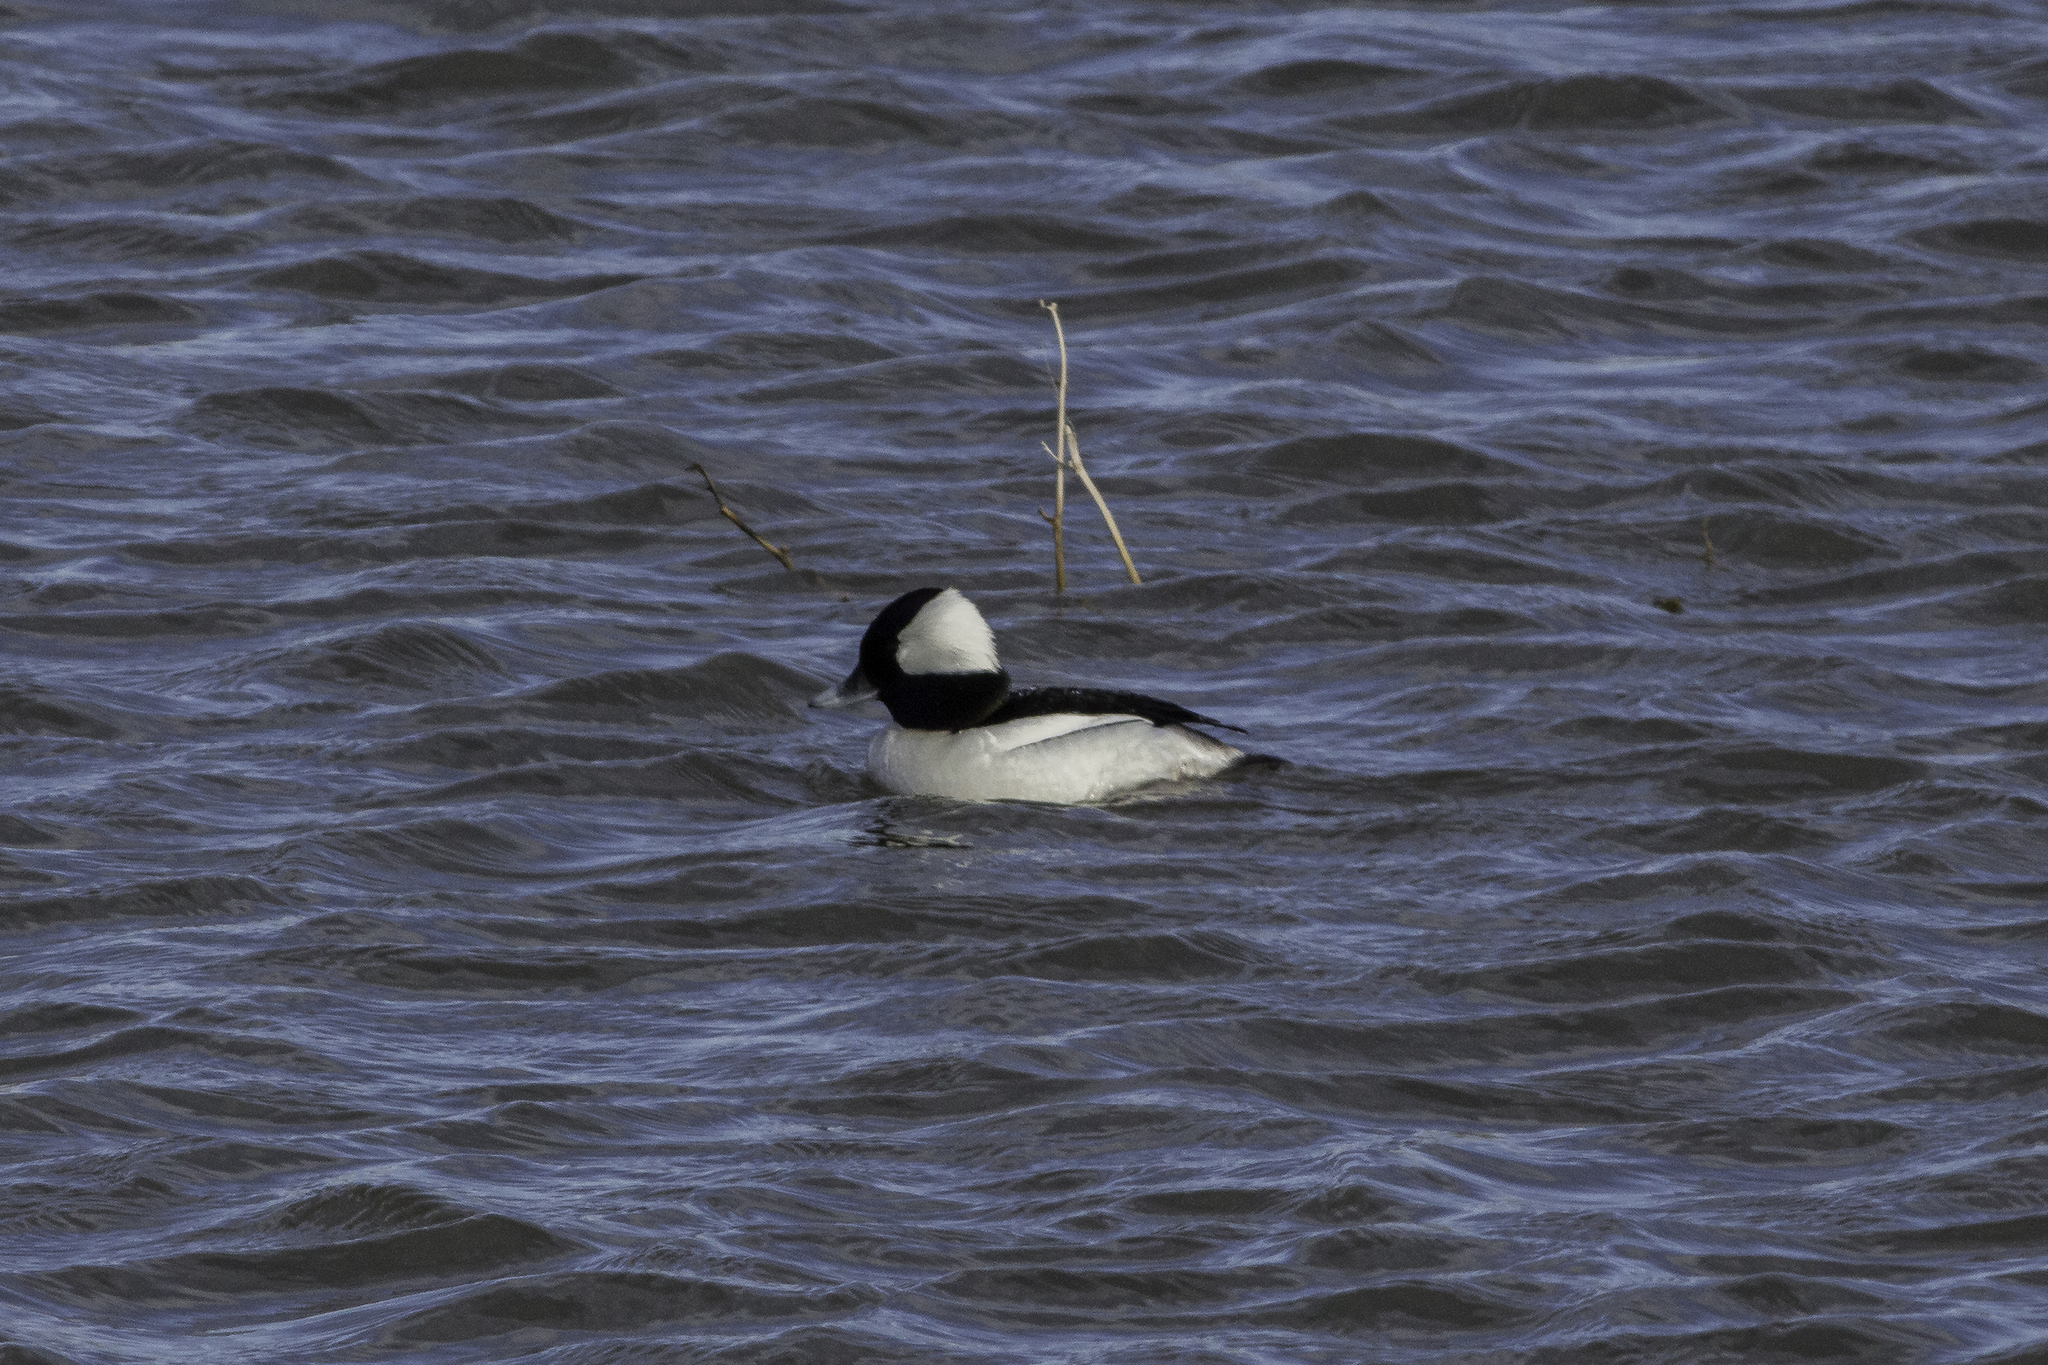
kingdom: Animalia
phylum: Chordata
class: Aves
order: Anseriformes
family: Anatidae
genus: Bucephala
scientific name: Bucephala albeola
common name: Bufflehead
